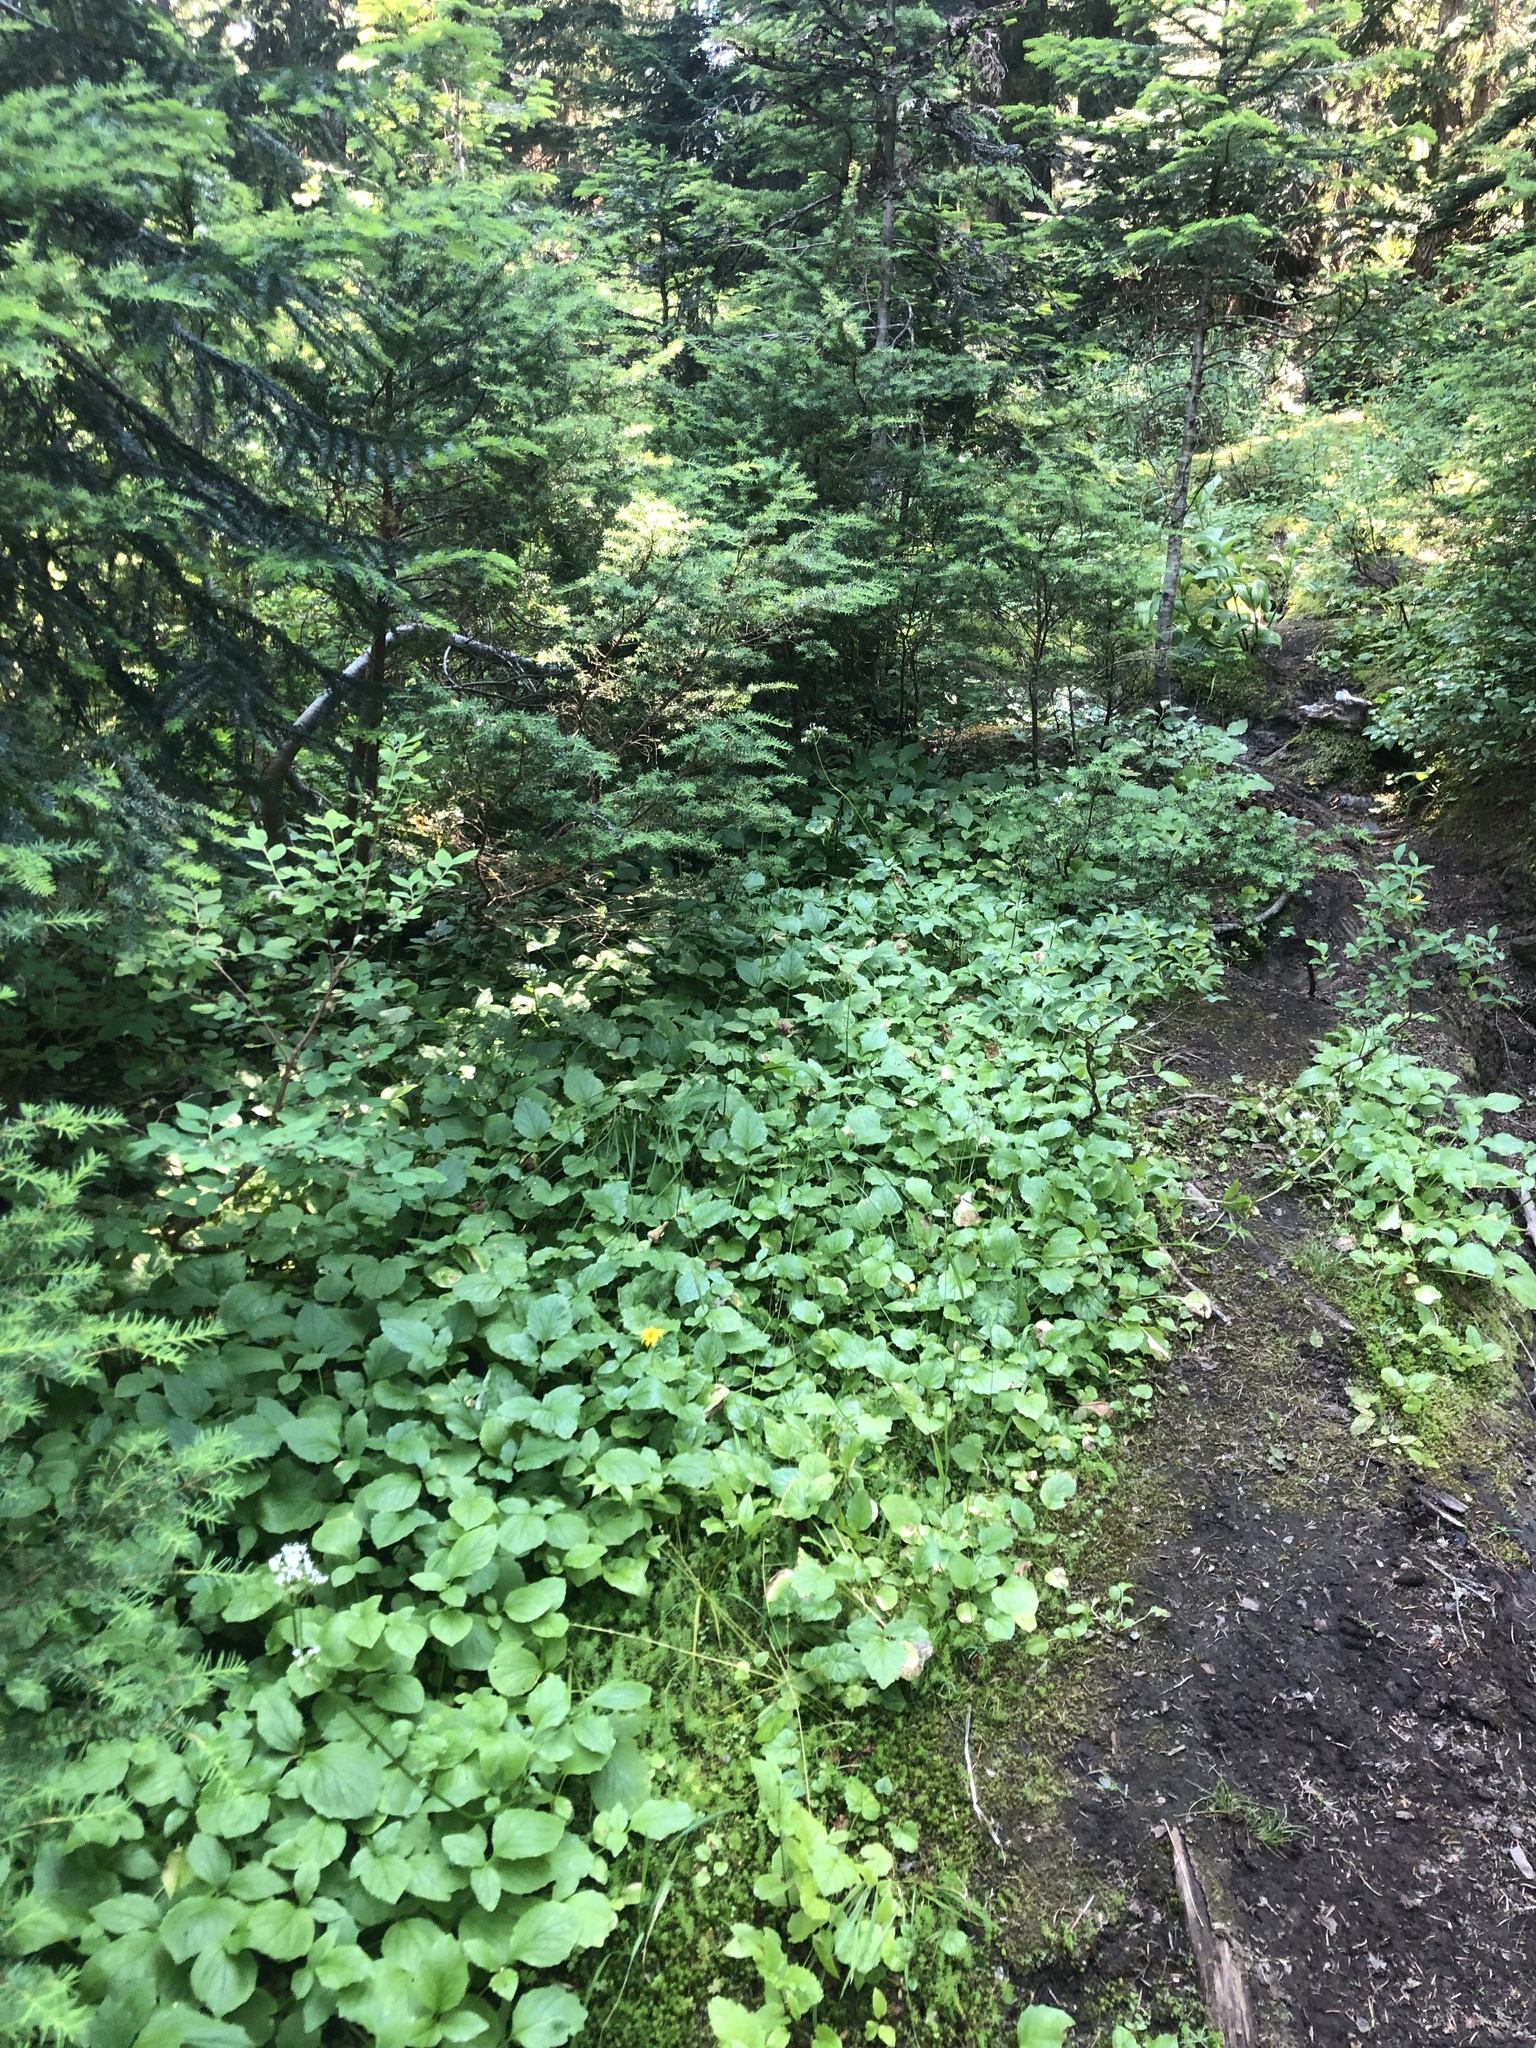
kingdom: Plantae
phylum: Tracheophyta
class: Magnoliopsida
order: Dipsacales
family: Caprifoliaceae
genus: Valeriana
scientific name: Valeriana sitchensis
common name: Pacific valerian
